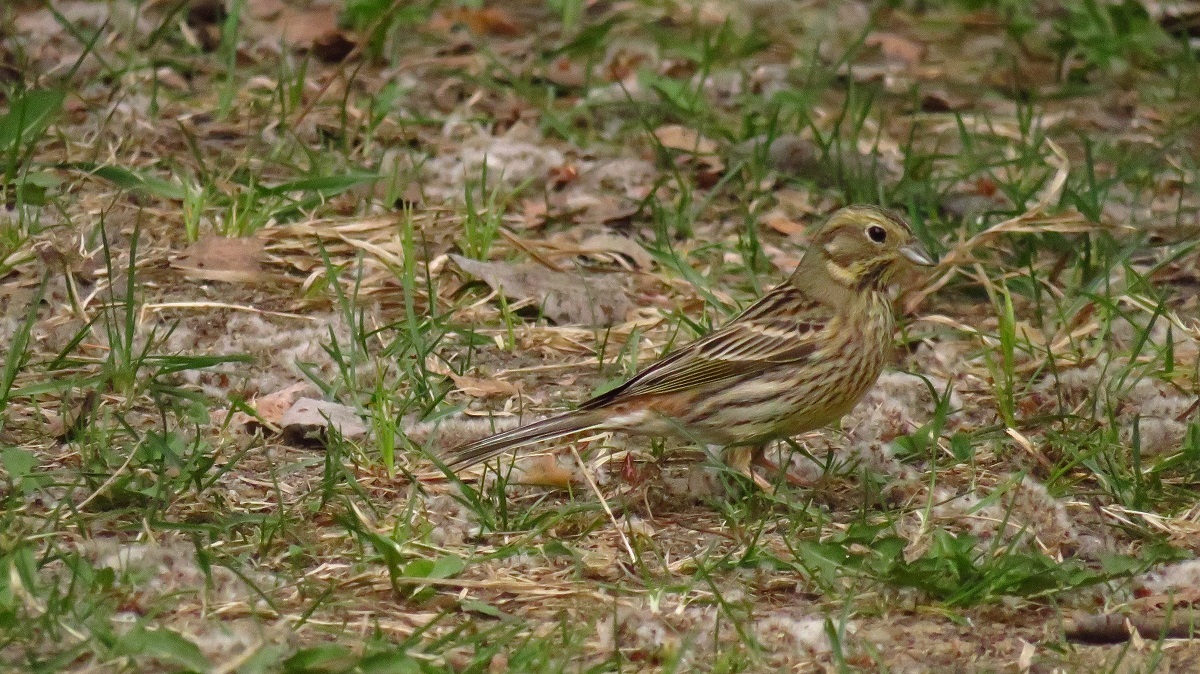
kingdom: Animalia
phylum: Chordata
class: Aves
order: Passeriformes
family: Emberizidae
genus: Emberiza
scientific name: Emberiza citrinella
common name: Yellowhammer
